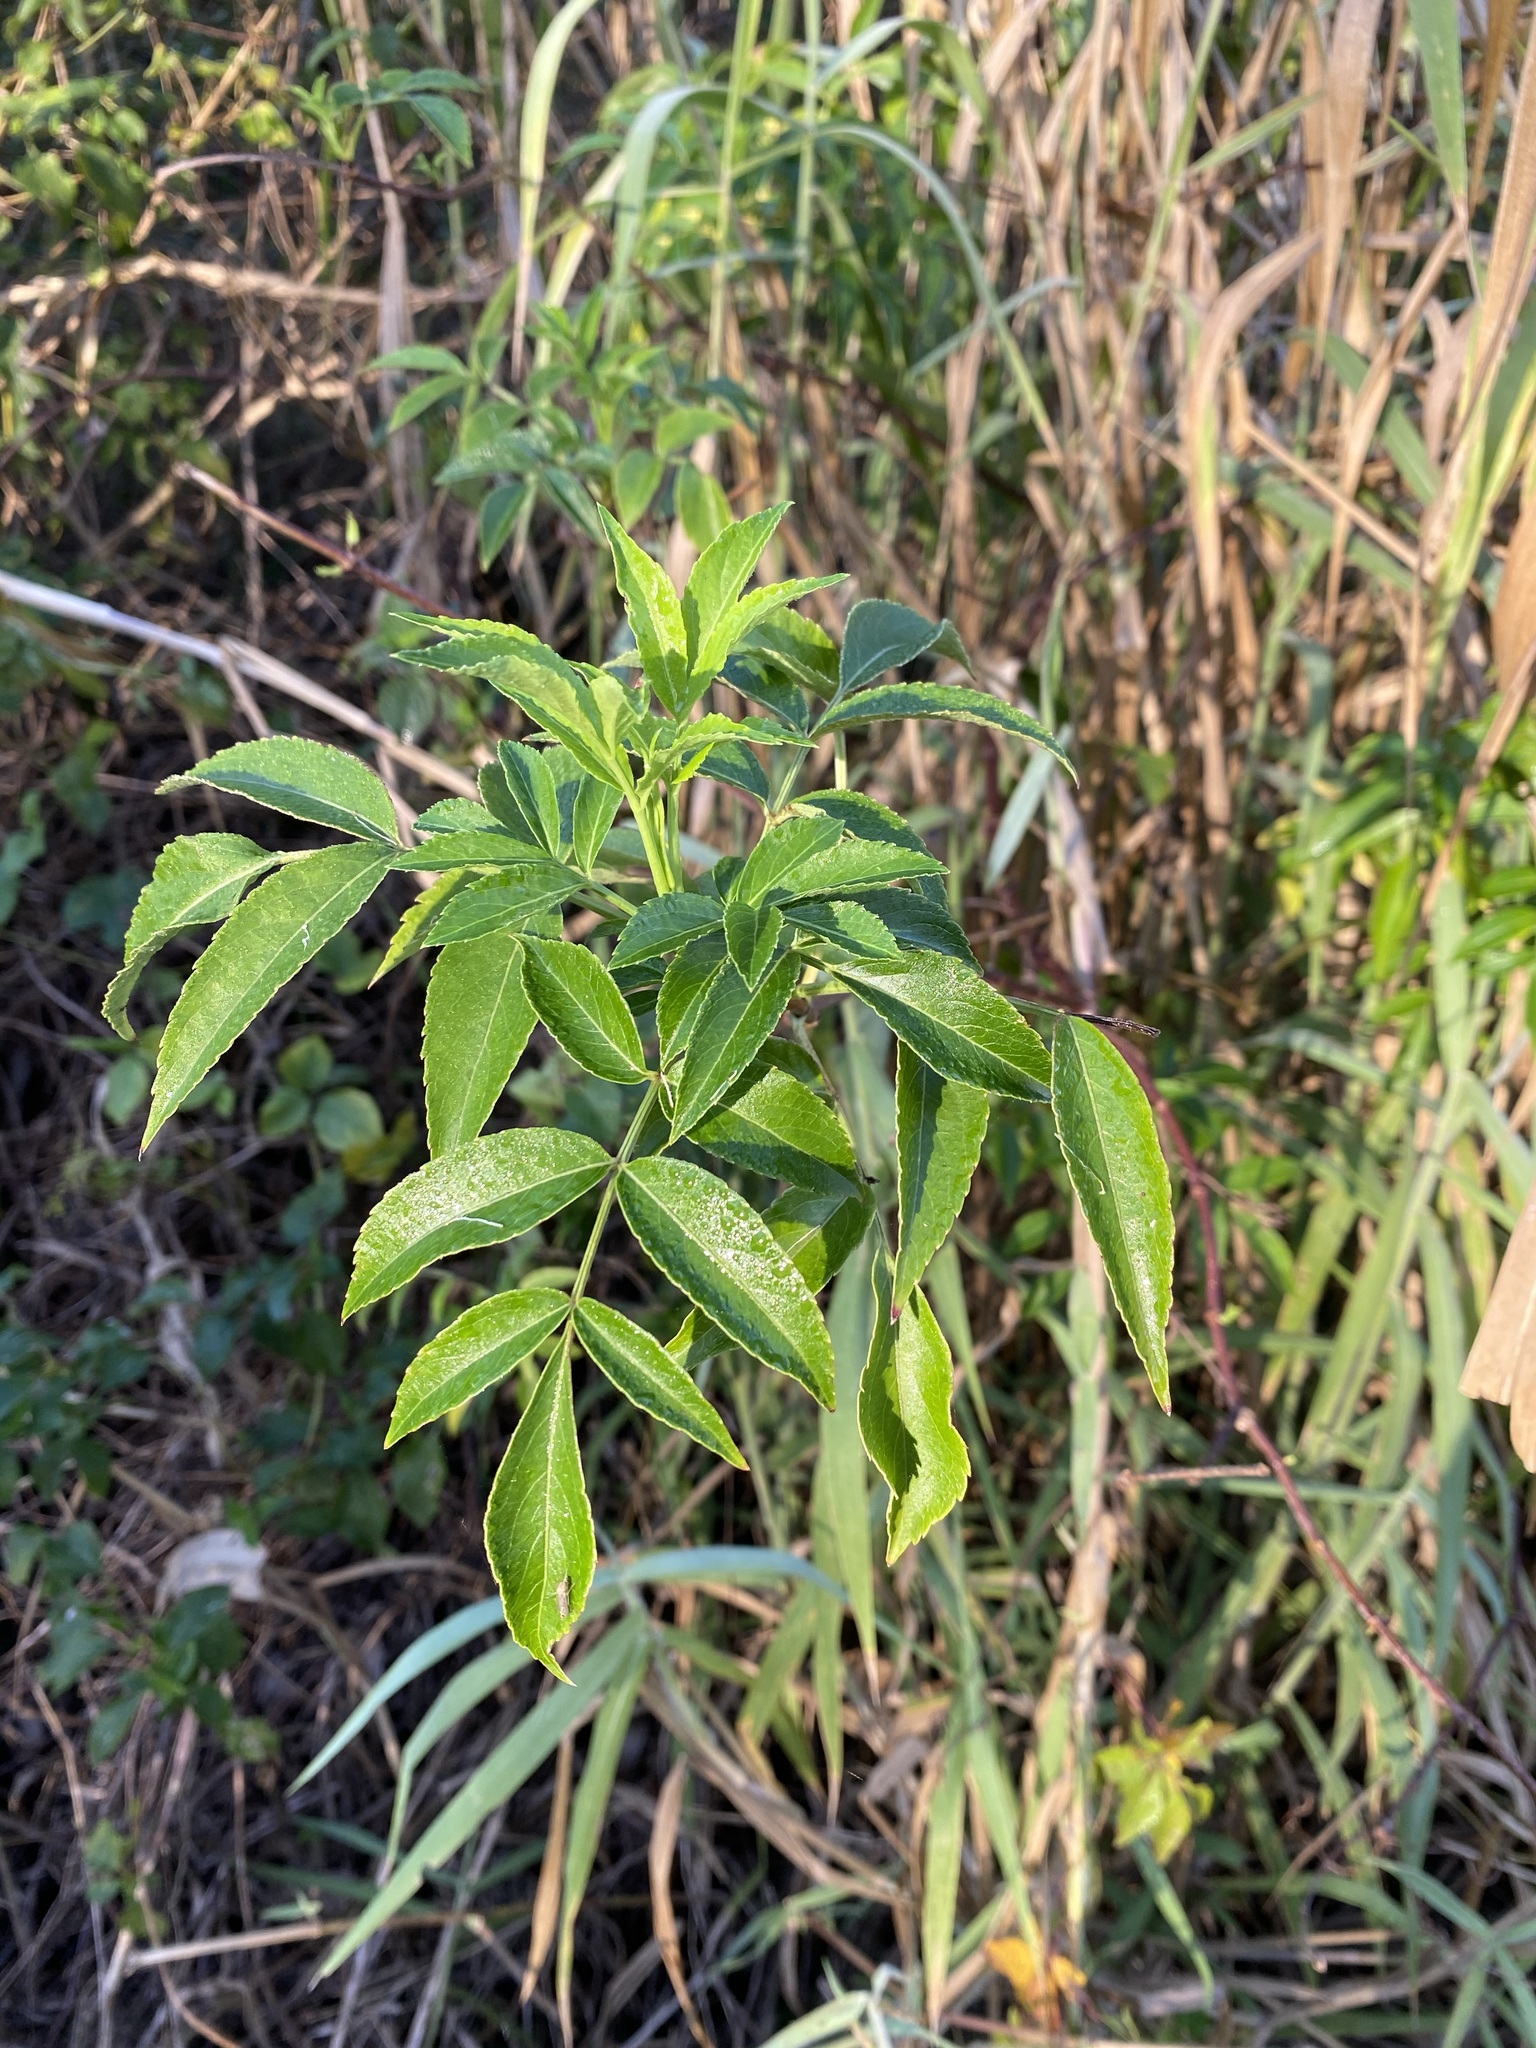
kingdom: Plantae
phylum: Tracheophyta
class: Magnoliopsida
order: Lamiales
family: Bignoniaceae
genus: Tecoma
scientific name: Tecoma stans
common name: Yellow trumpetbush
